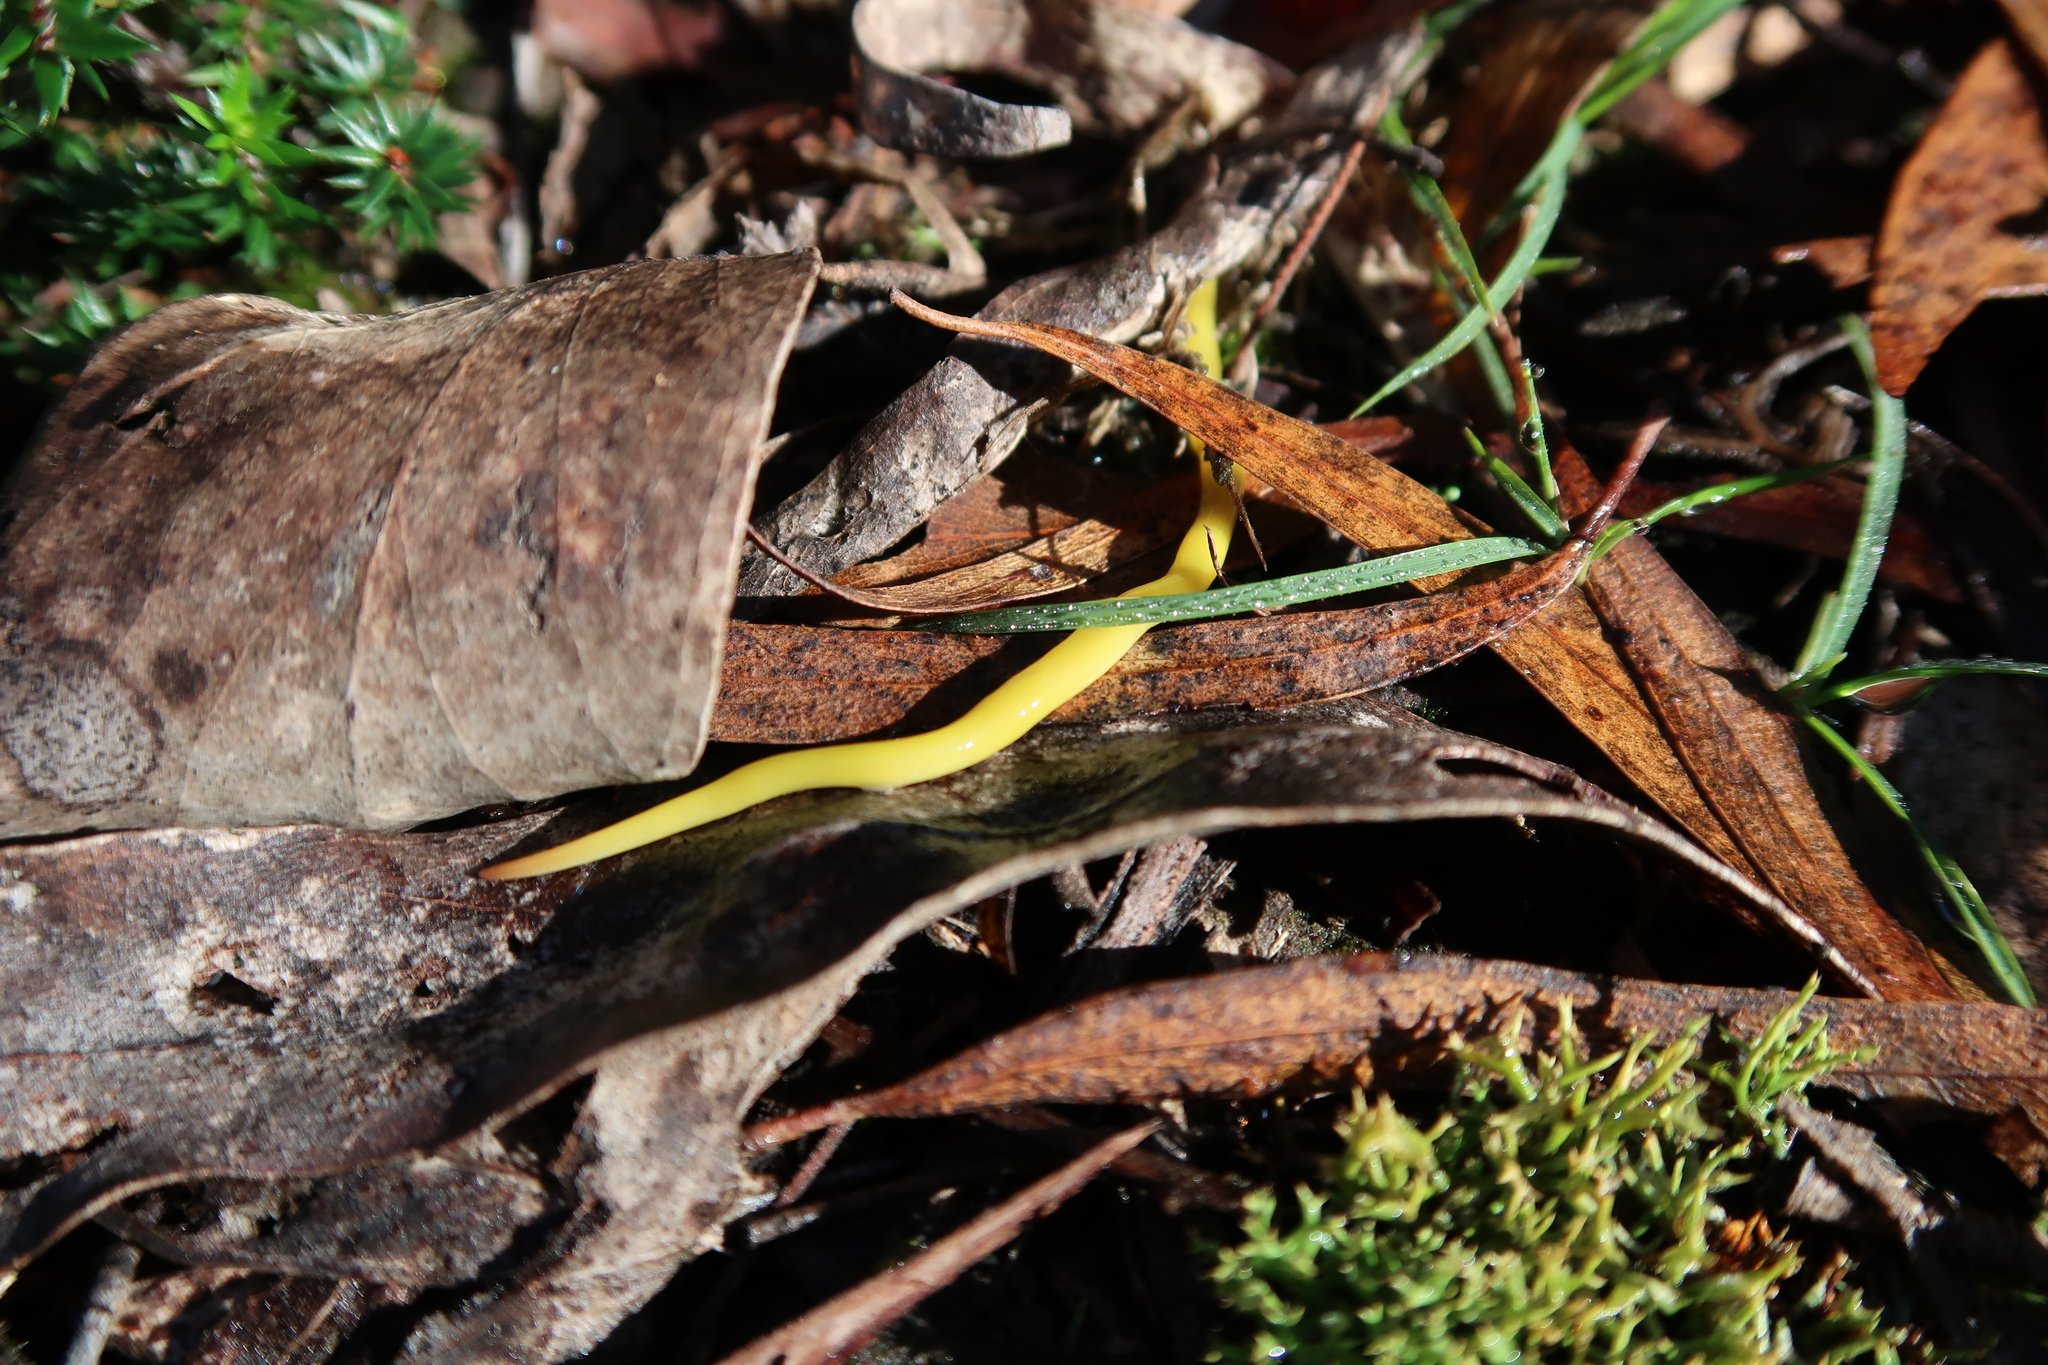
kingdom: Animalia
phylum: Platyhelminthes
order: Tricladida
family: Geoplanidae
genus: Fletchamia
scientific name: Fletchamia sugdeni
